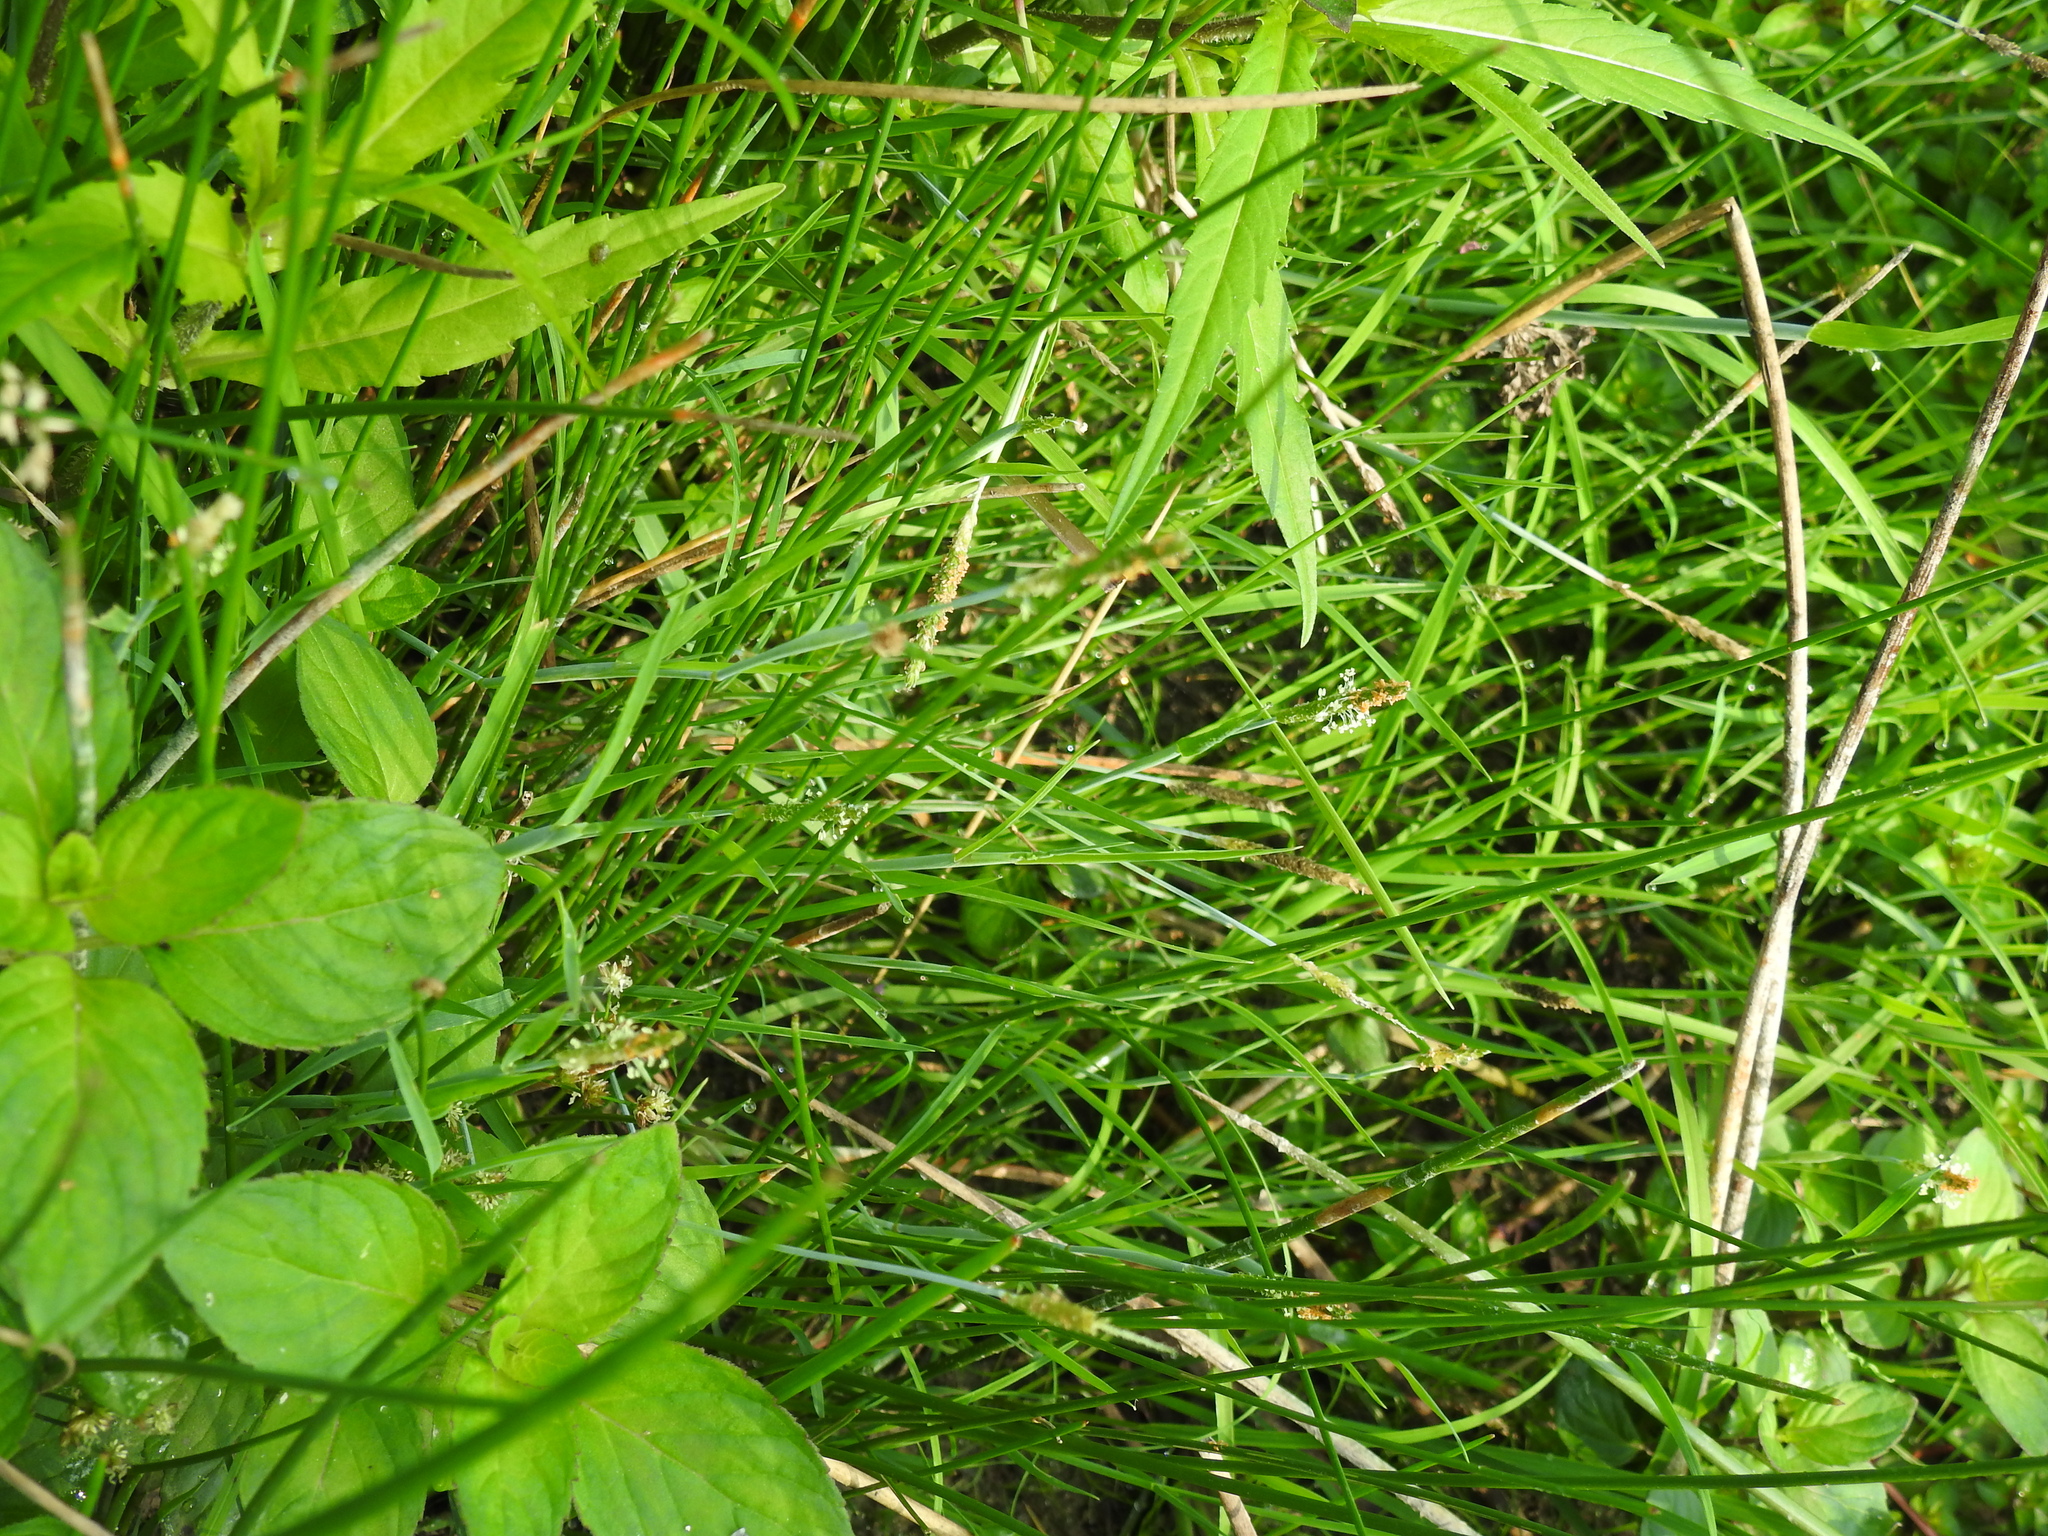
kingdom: Plantae
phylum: Tracheophyta
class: Liliopsida
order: Poales
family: Poaceae
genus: Alopecurus
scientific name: Alopecurus aequalis
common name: Orange foxtail
